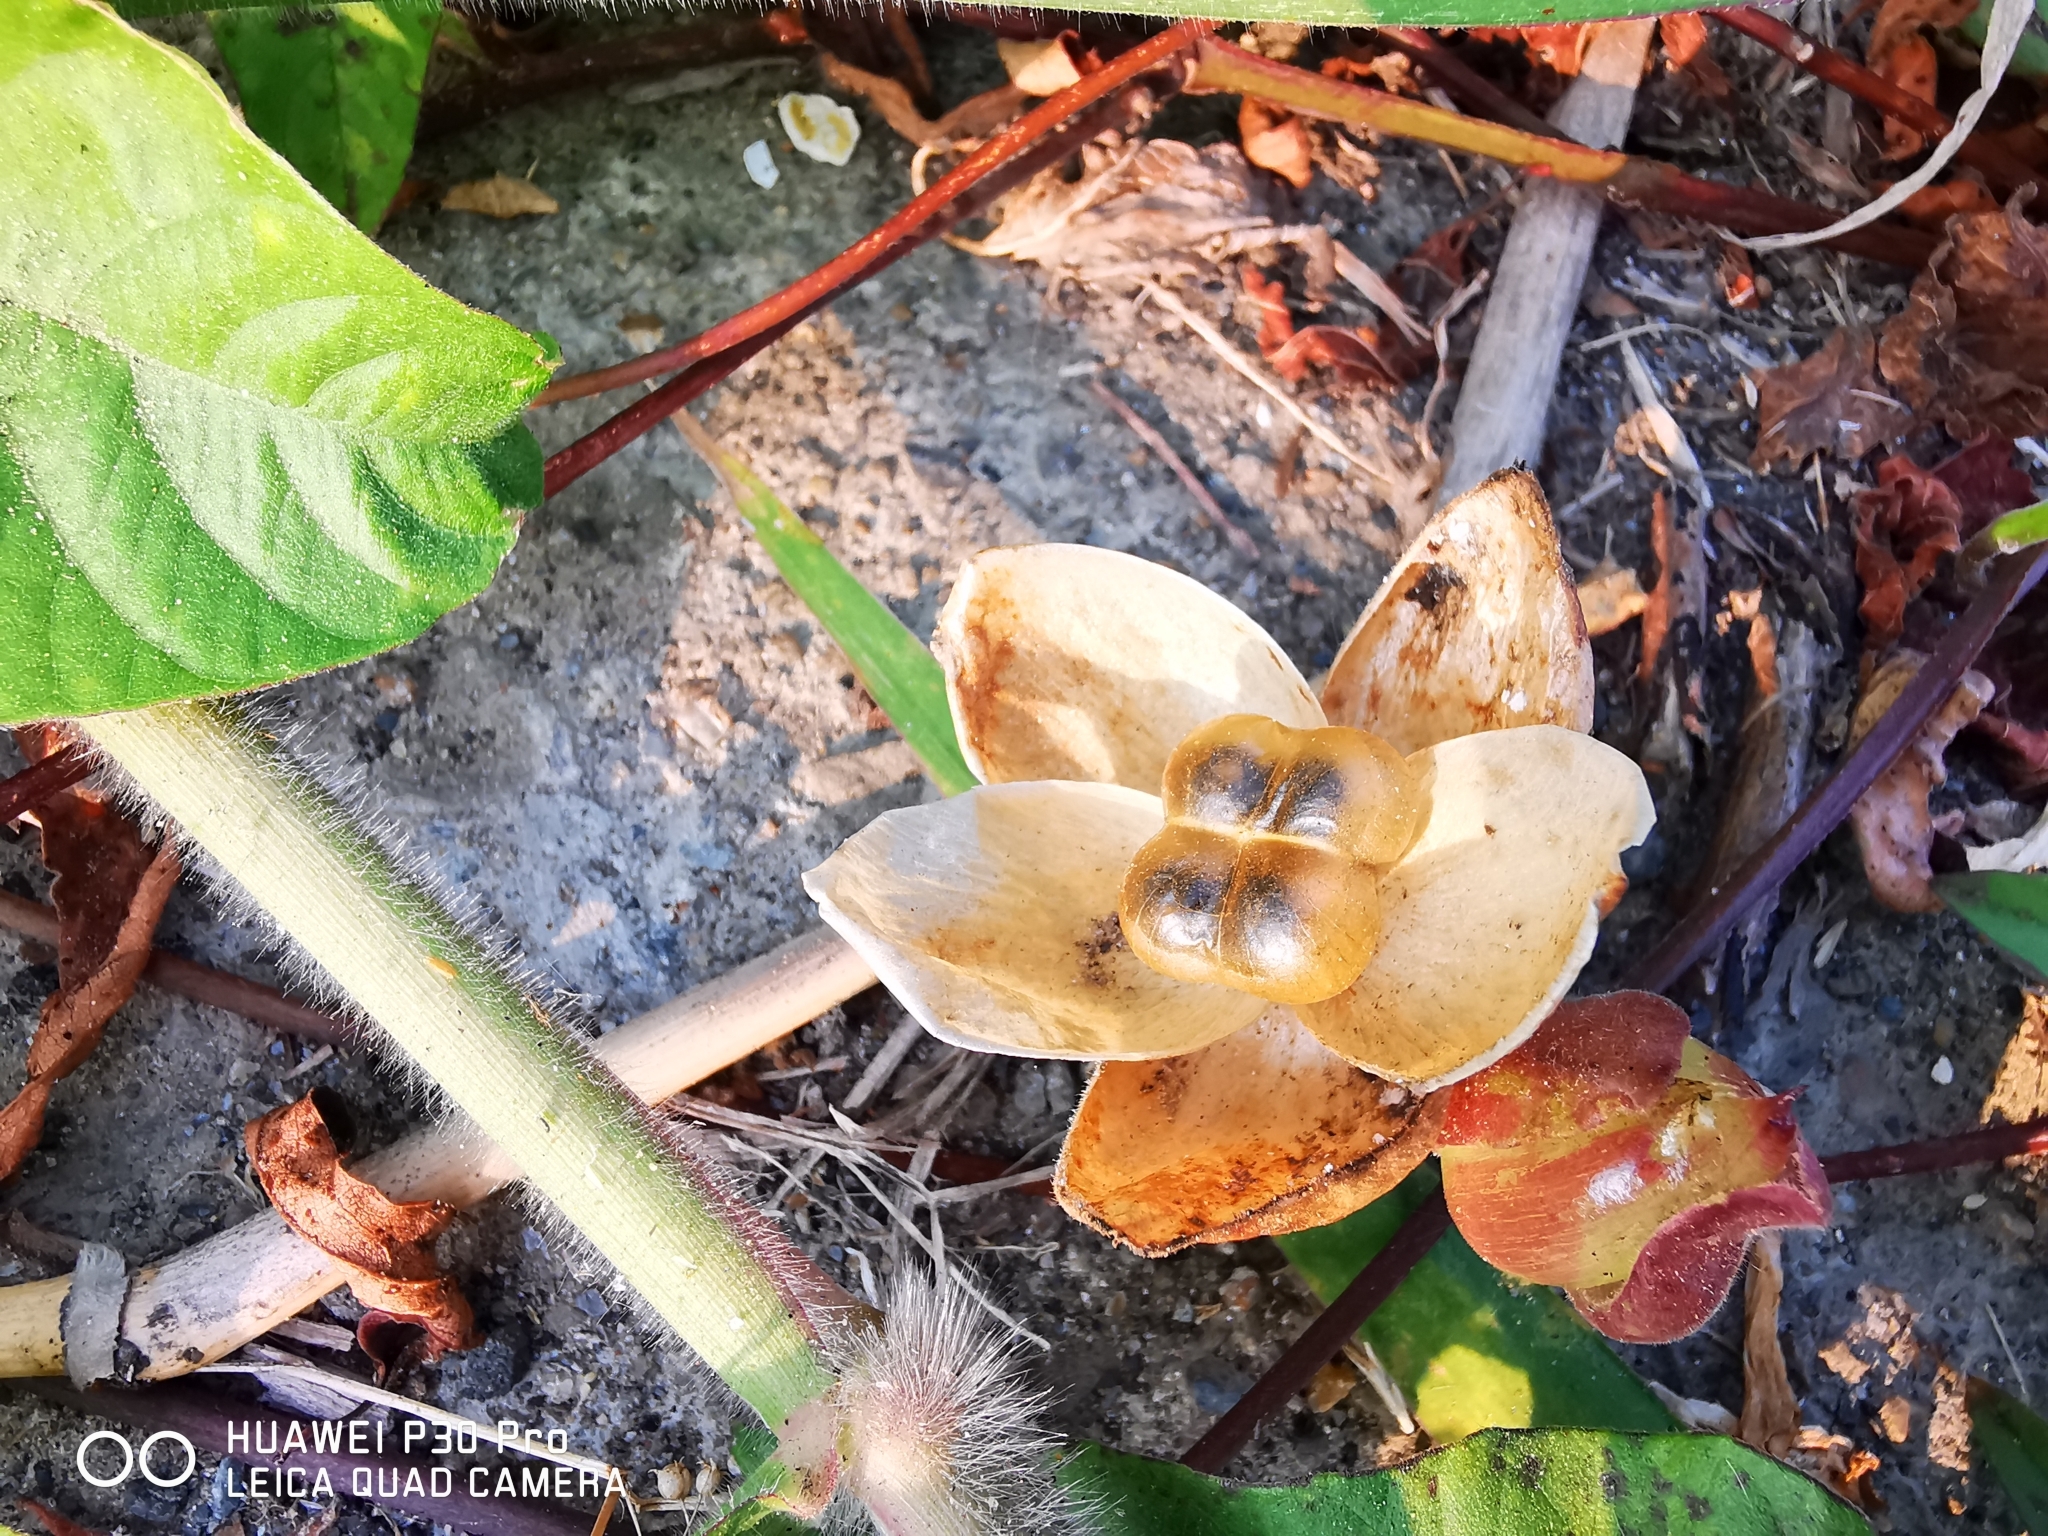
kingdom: Plantae
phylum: Tracheophyta
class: Magnoliopsida
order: Solanales
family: Convolvulaceae
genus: Operculina
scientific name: Operculina turpethum
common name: Transparent wood-rose
